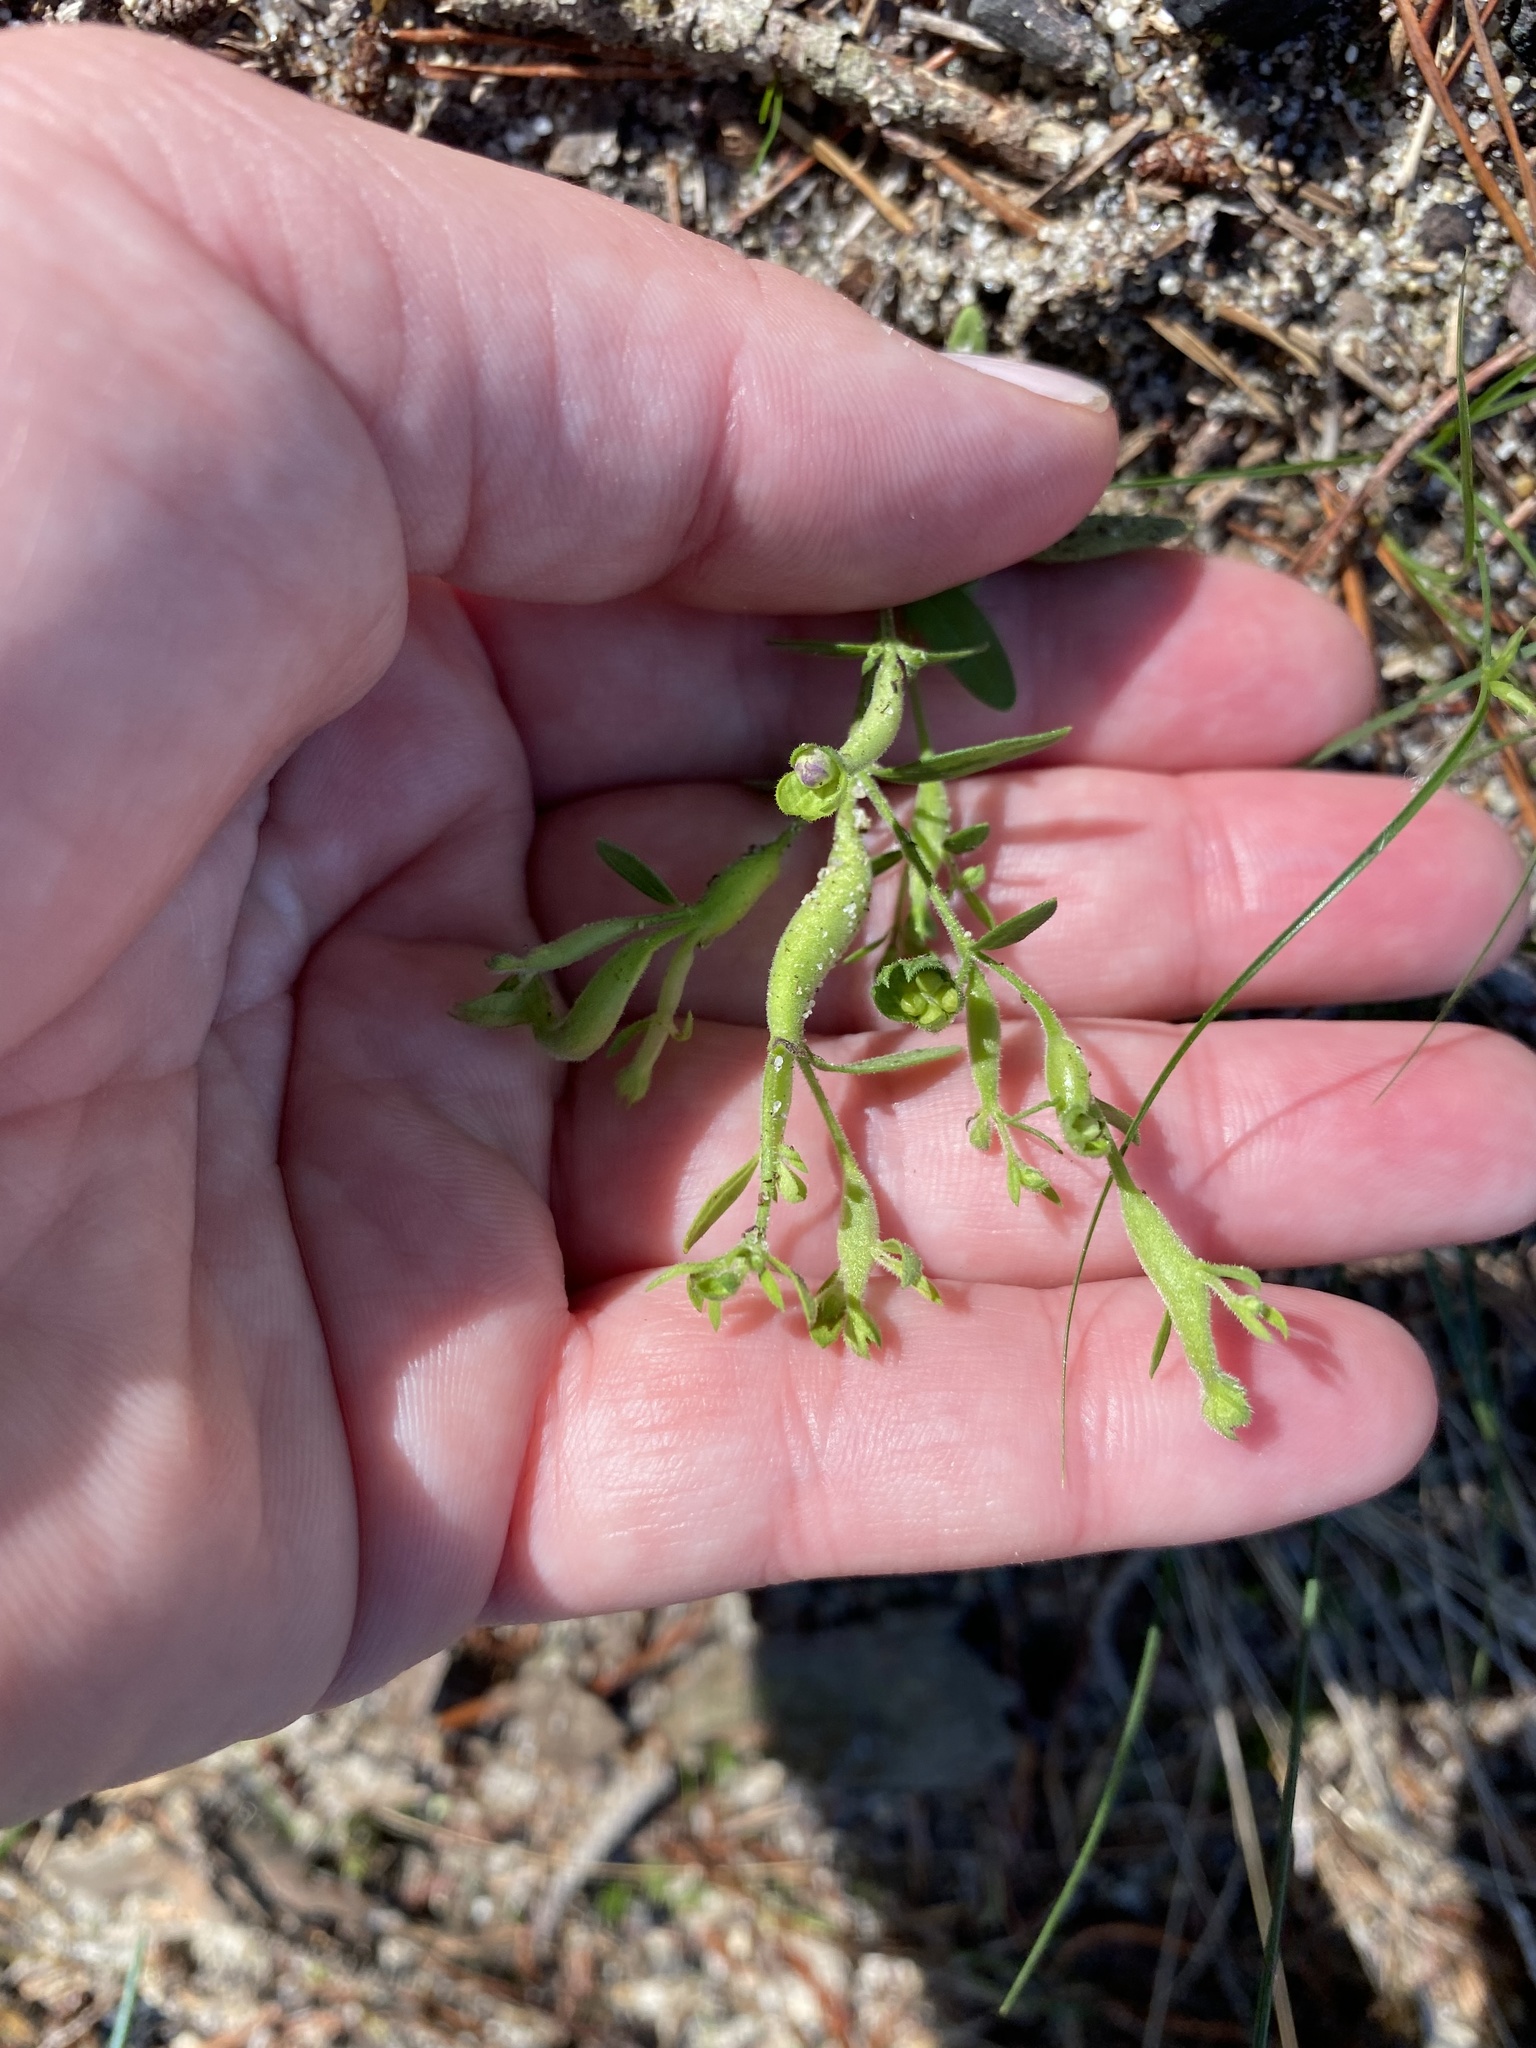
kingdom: Animalia
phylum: Arthropoda
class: Insecta
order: Lepidoptera
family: Cosmopterigidae
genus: Eteobalea
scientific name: Eteobalea sexnotella
